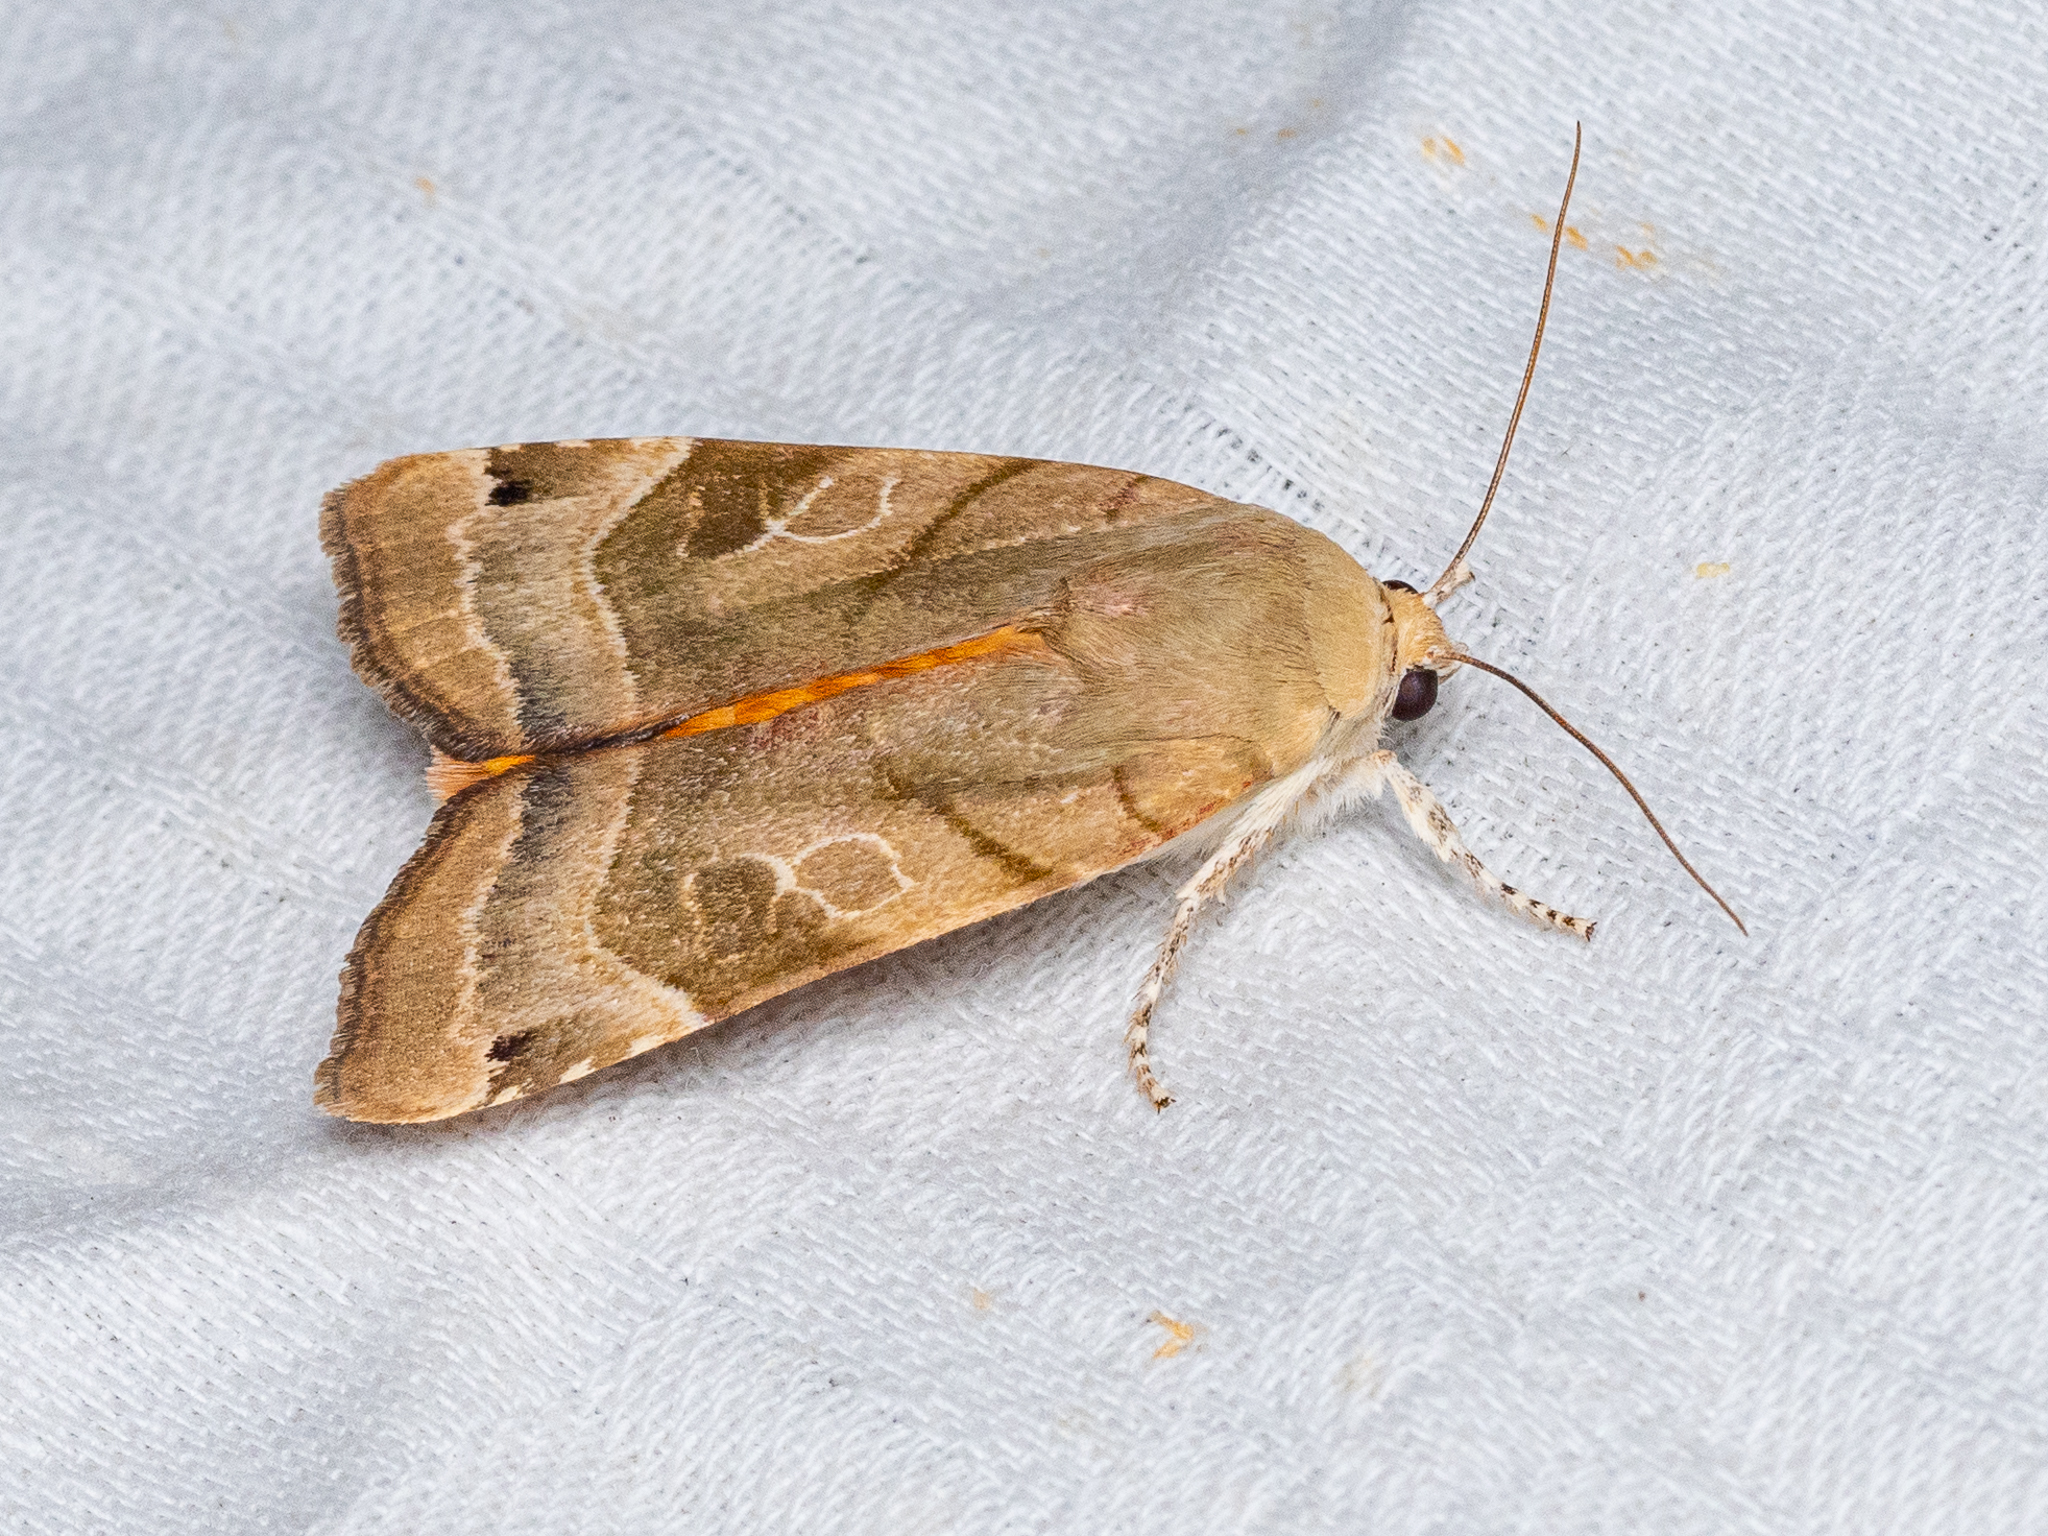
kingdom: Animalia
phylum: Arthropoda
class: Insecta
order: Lepidoptera
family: Noctuidae
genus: Noctua
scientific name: Noctua fimbriata
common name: Broad-bordered yellow underwing
